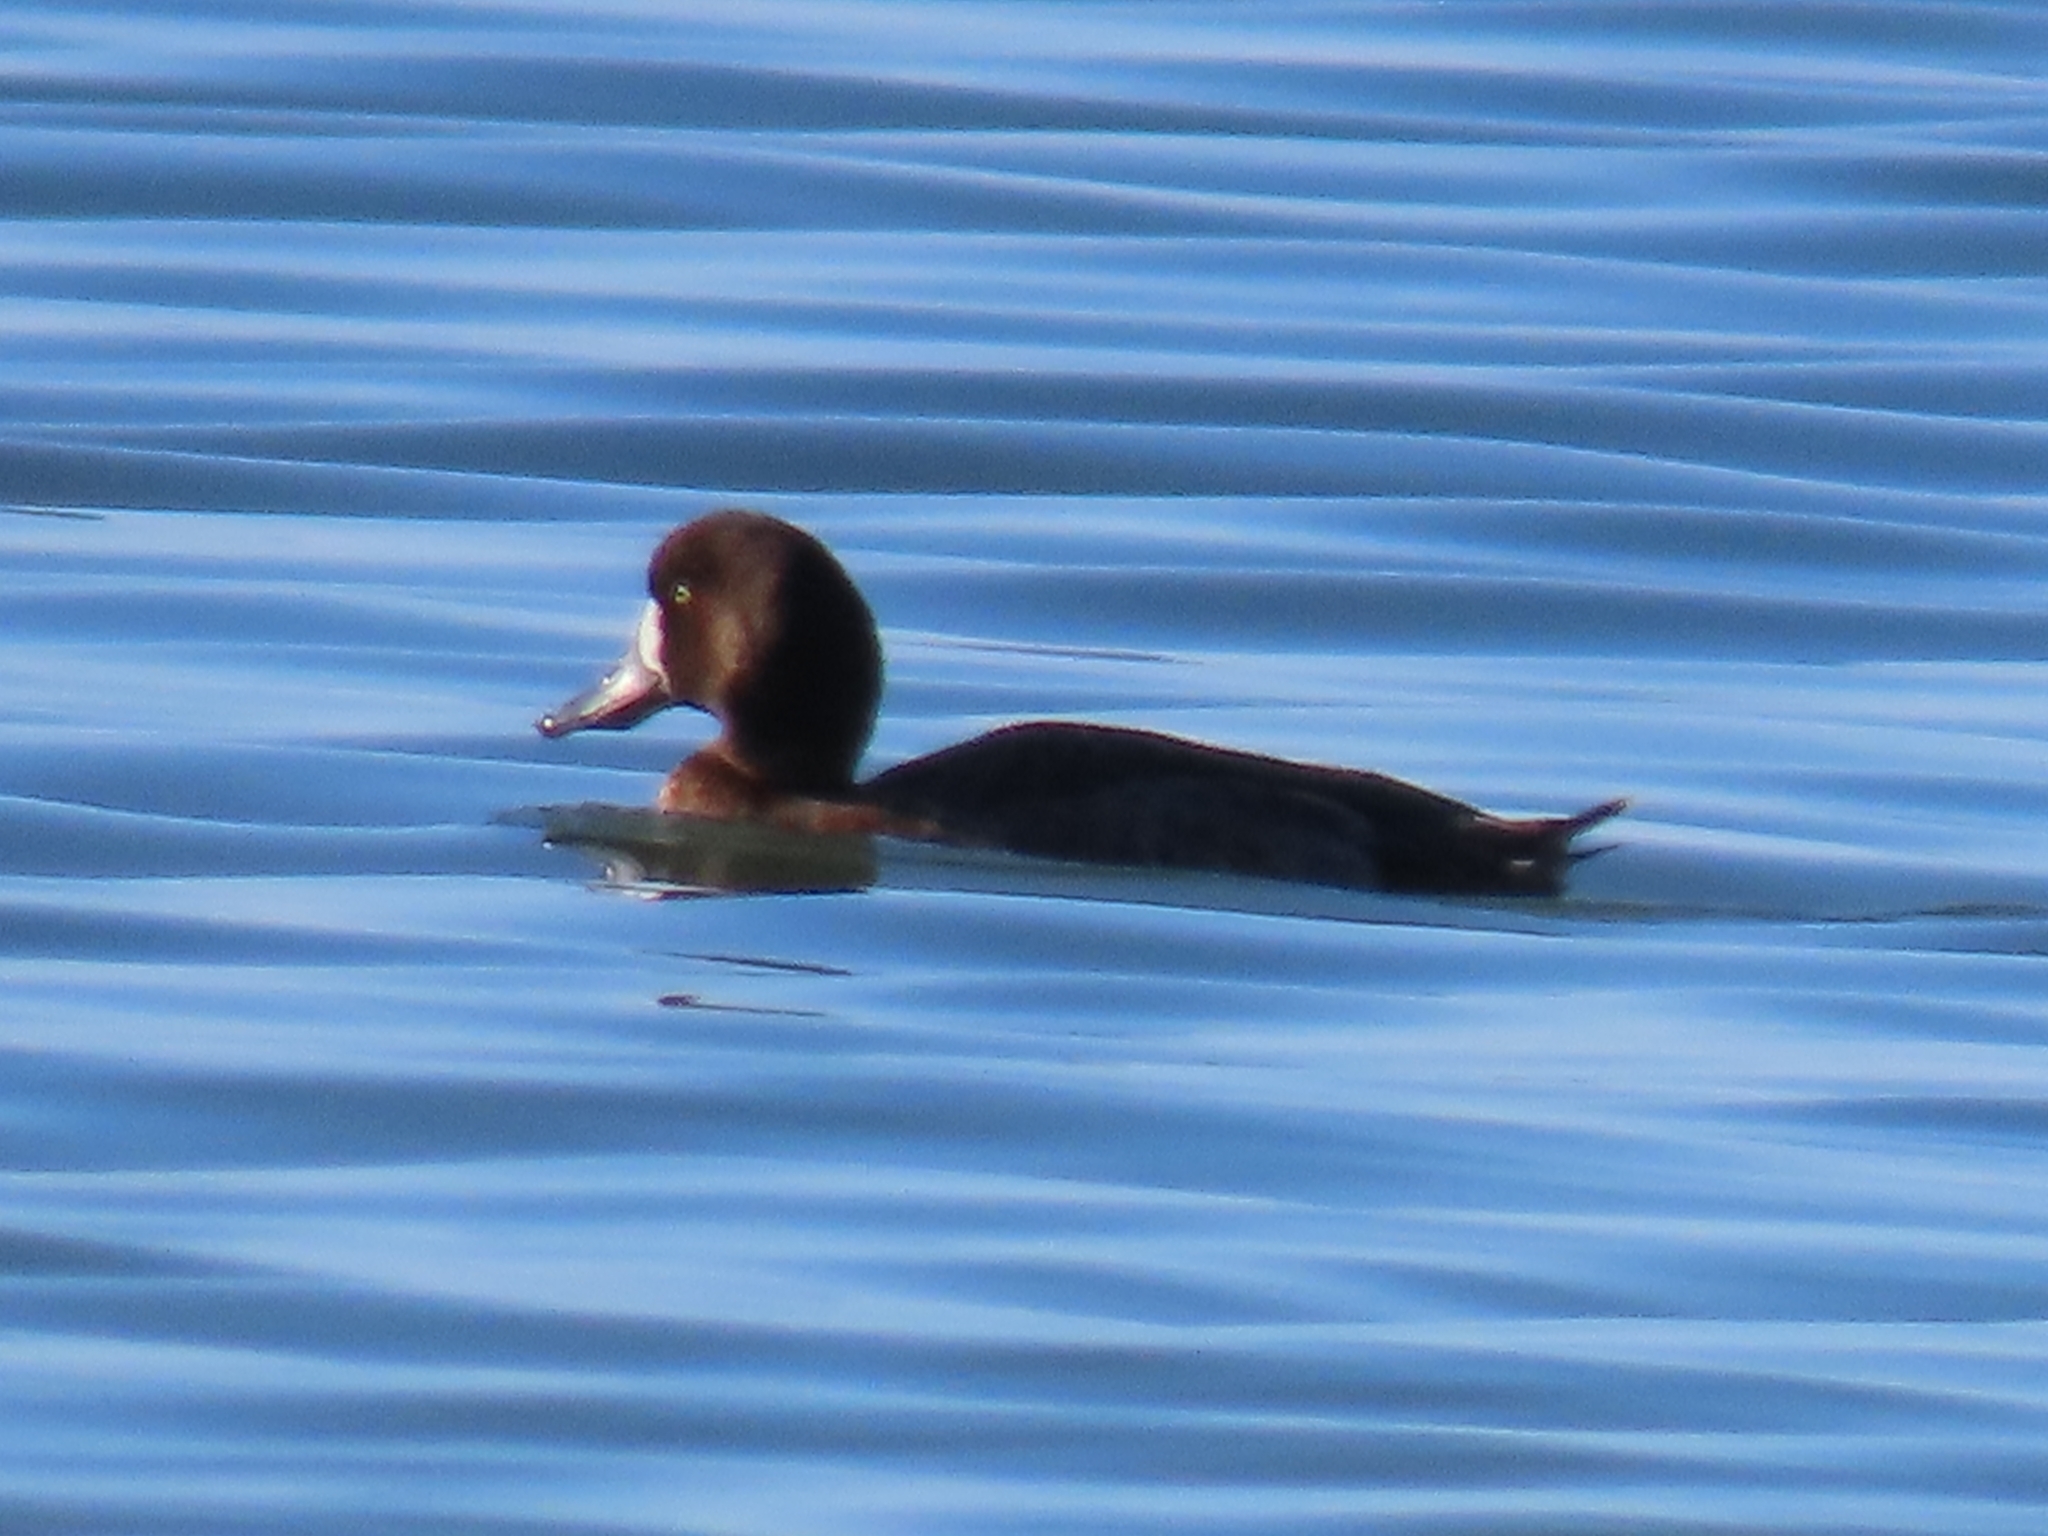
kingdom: Animalia
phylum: Chordata
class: Aves
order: Anseriformes
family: Anatidae
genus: Aythya
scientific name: Aythya marila
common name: Greater scaup
